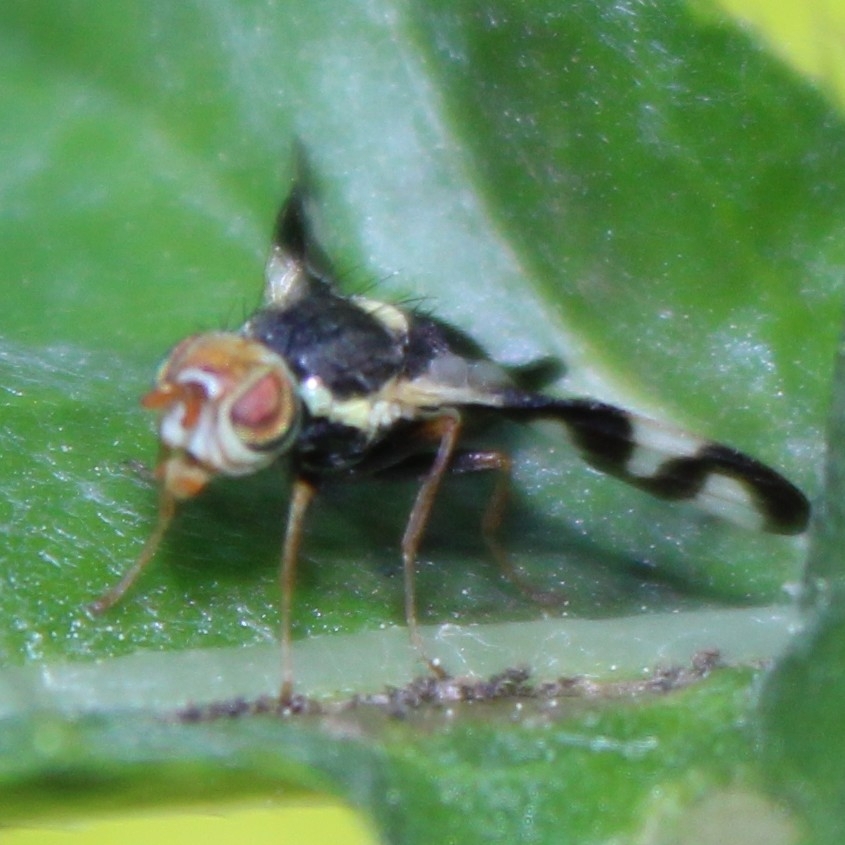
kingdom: Animalia
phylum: Arthropoda
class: Insecta
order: Diptera
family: Tephritidae
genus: Urophora
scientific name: Urophora cardui
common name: Fruit fly
